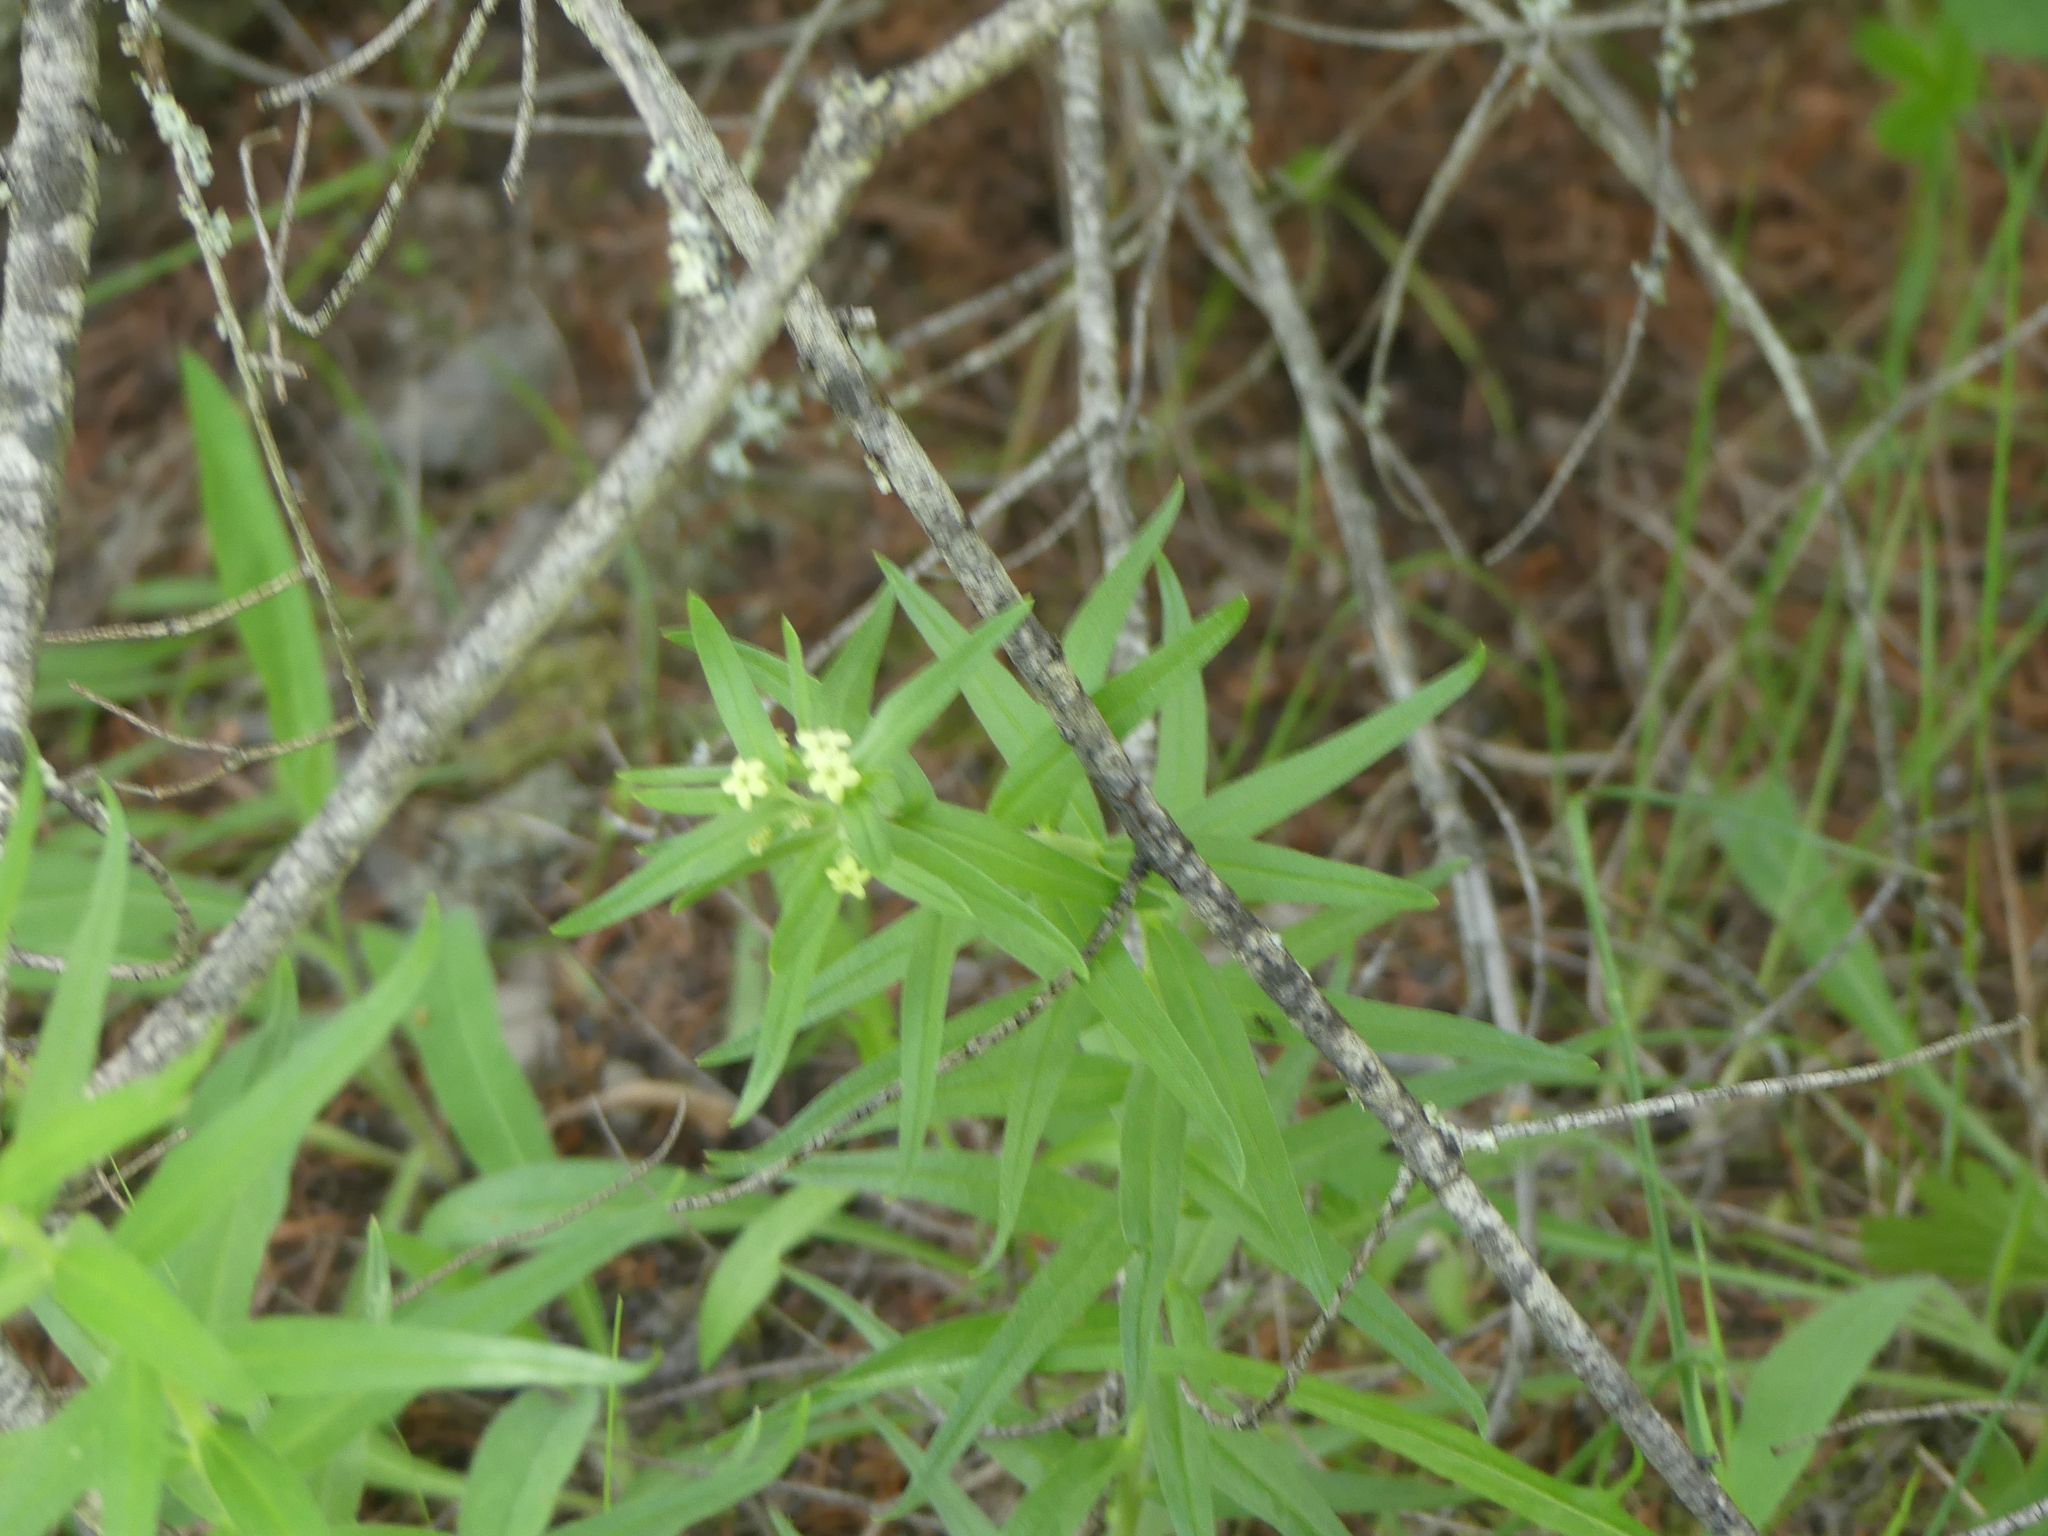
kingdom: Plantae
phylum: Tracheophyta
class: Magnoliopsida
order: Boraginales
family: Boraginaceae
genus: Lithospermum
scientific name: Lithospermum ruderale
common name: Western gromwell
